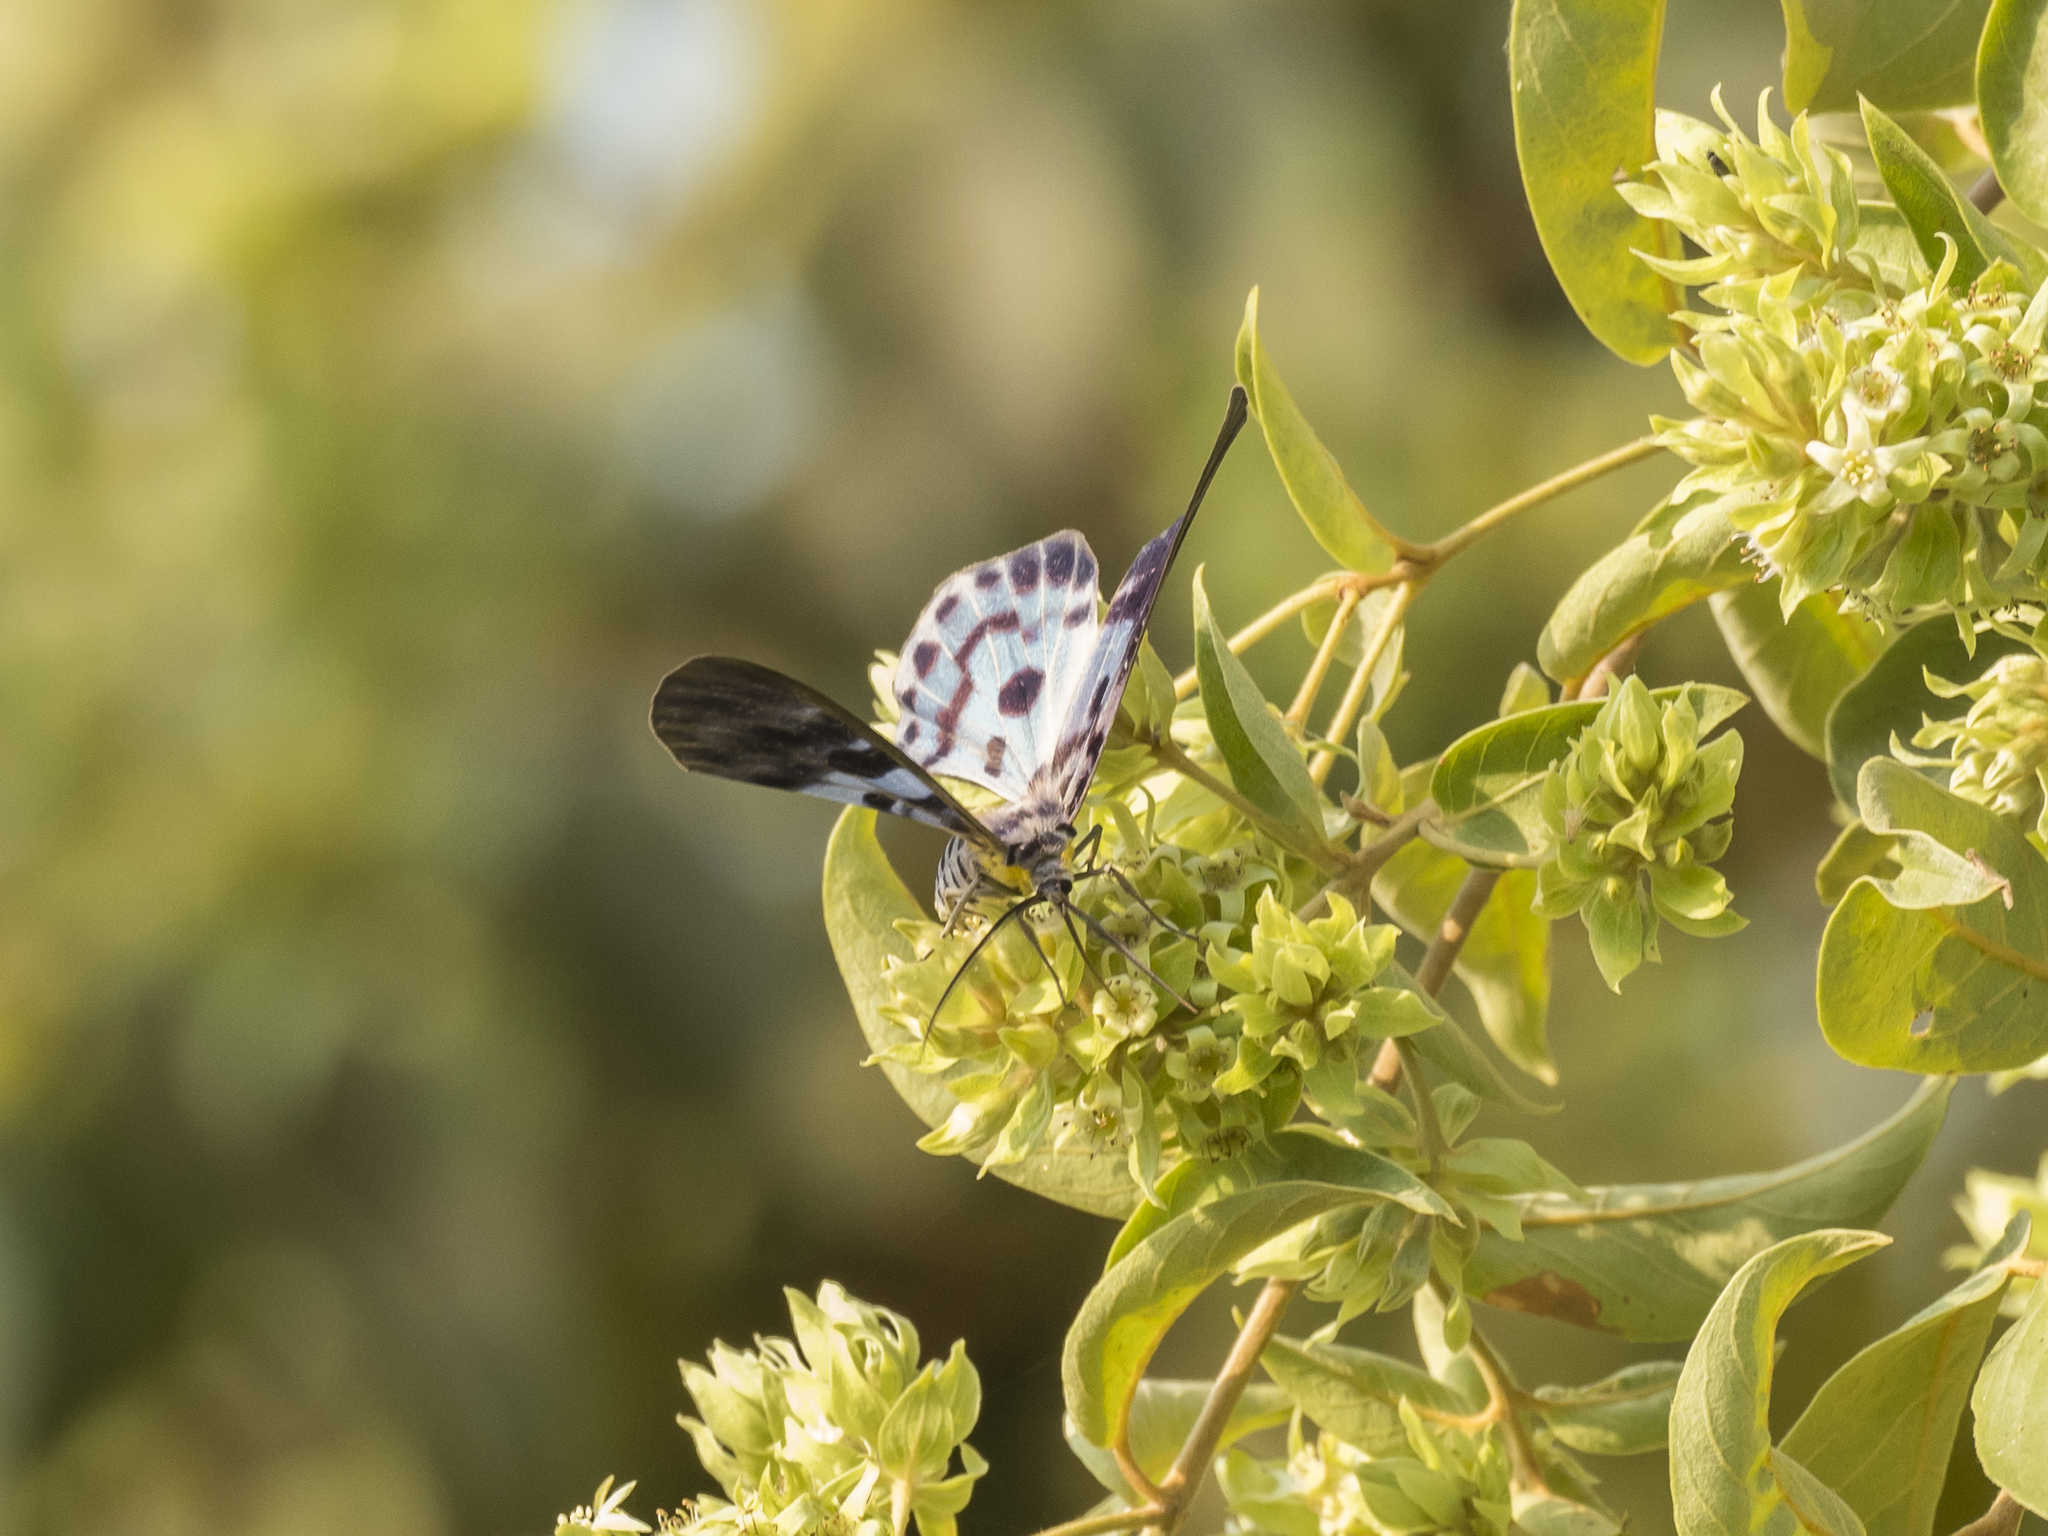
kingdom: Animalia
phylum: Arthropoda
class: Insecta
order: Lepidoptera
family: Geometridae
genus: Dysphania
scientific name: Dysphania percota
